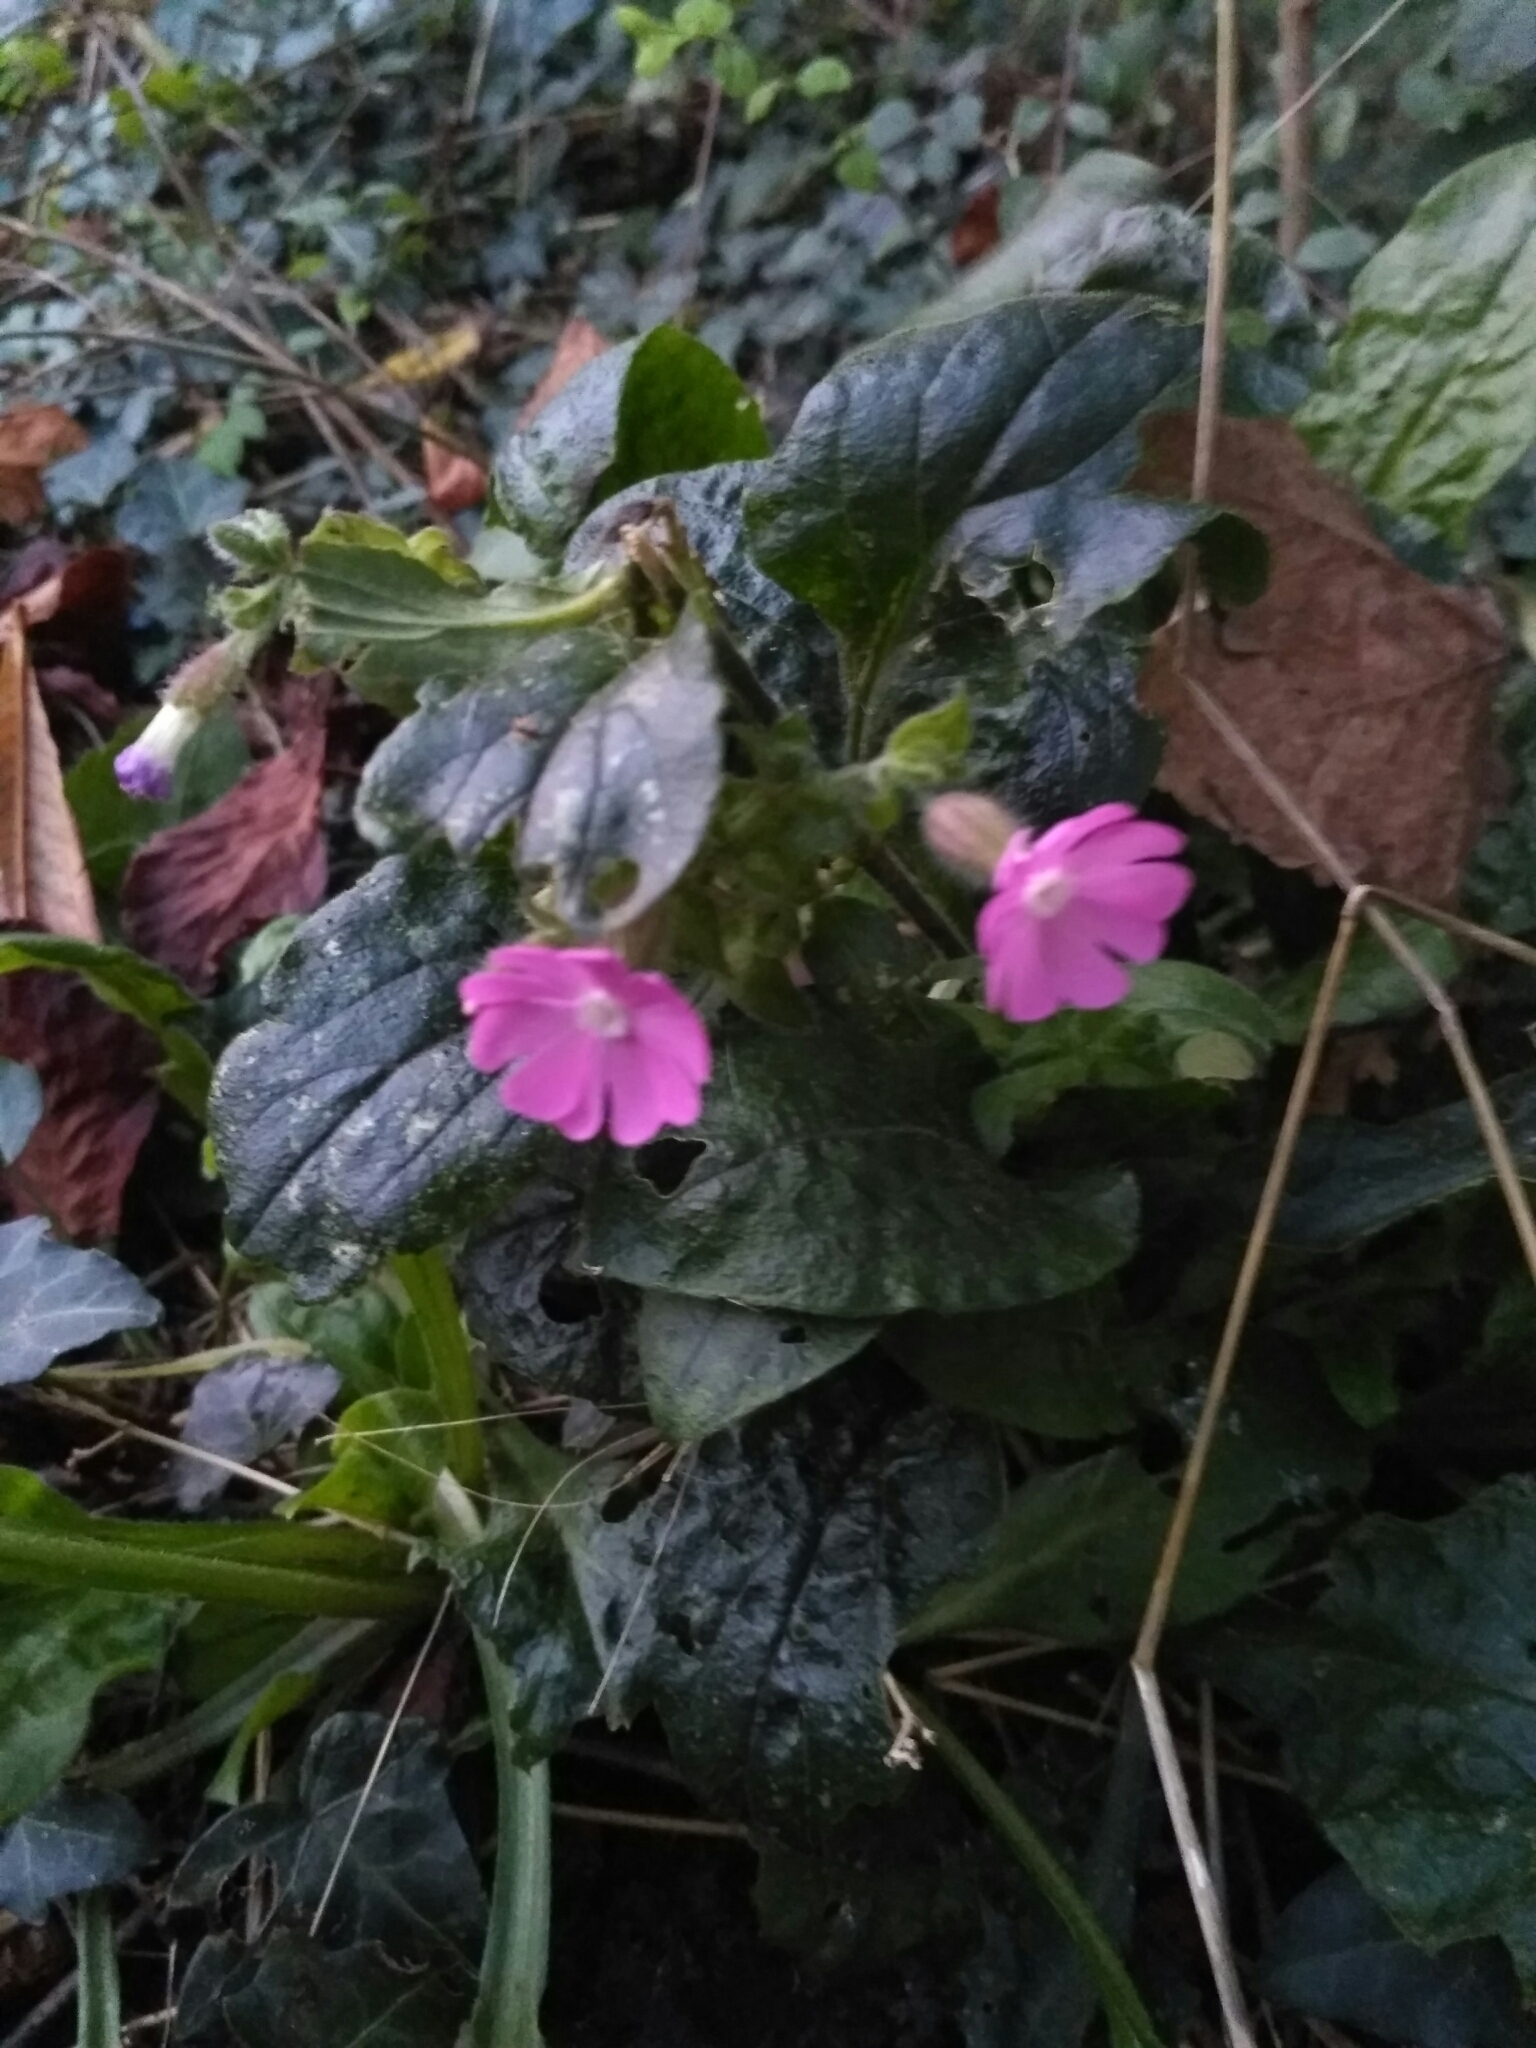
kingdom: Plantae
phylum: Tracheophyta
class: Magnoliopsida
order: Caryophyllales
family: Caryophyllaceae
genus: Silene
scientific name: Silene dioica
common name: Red campion
